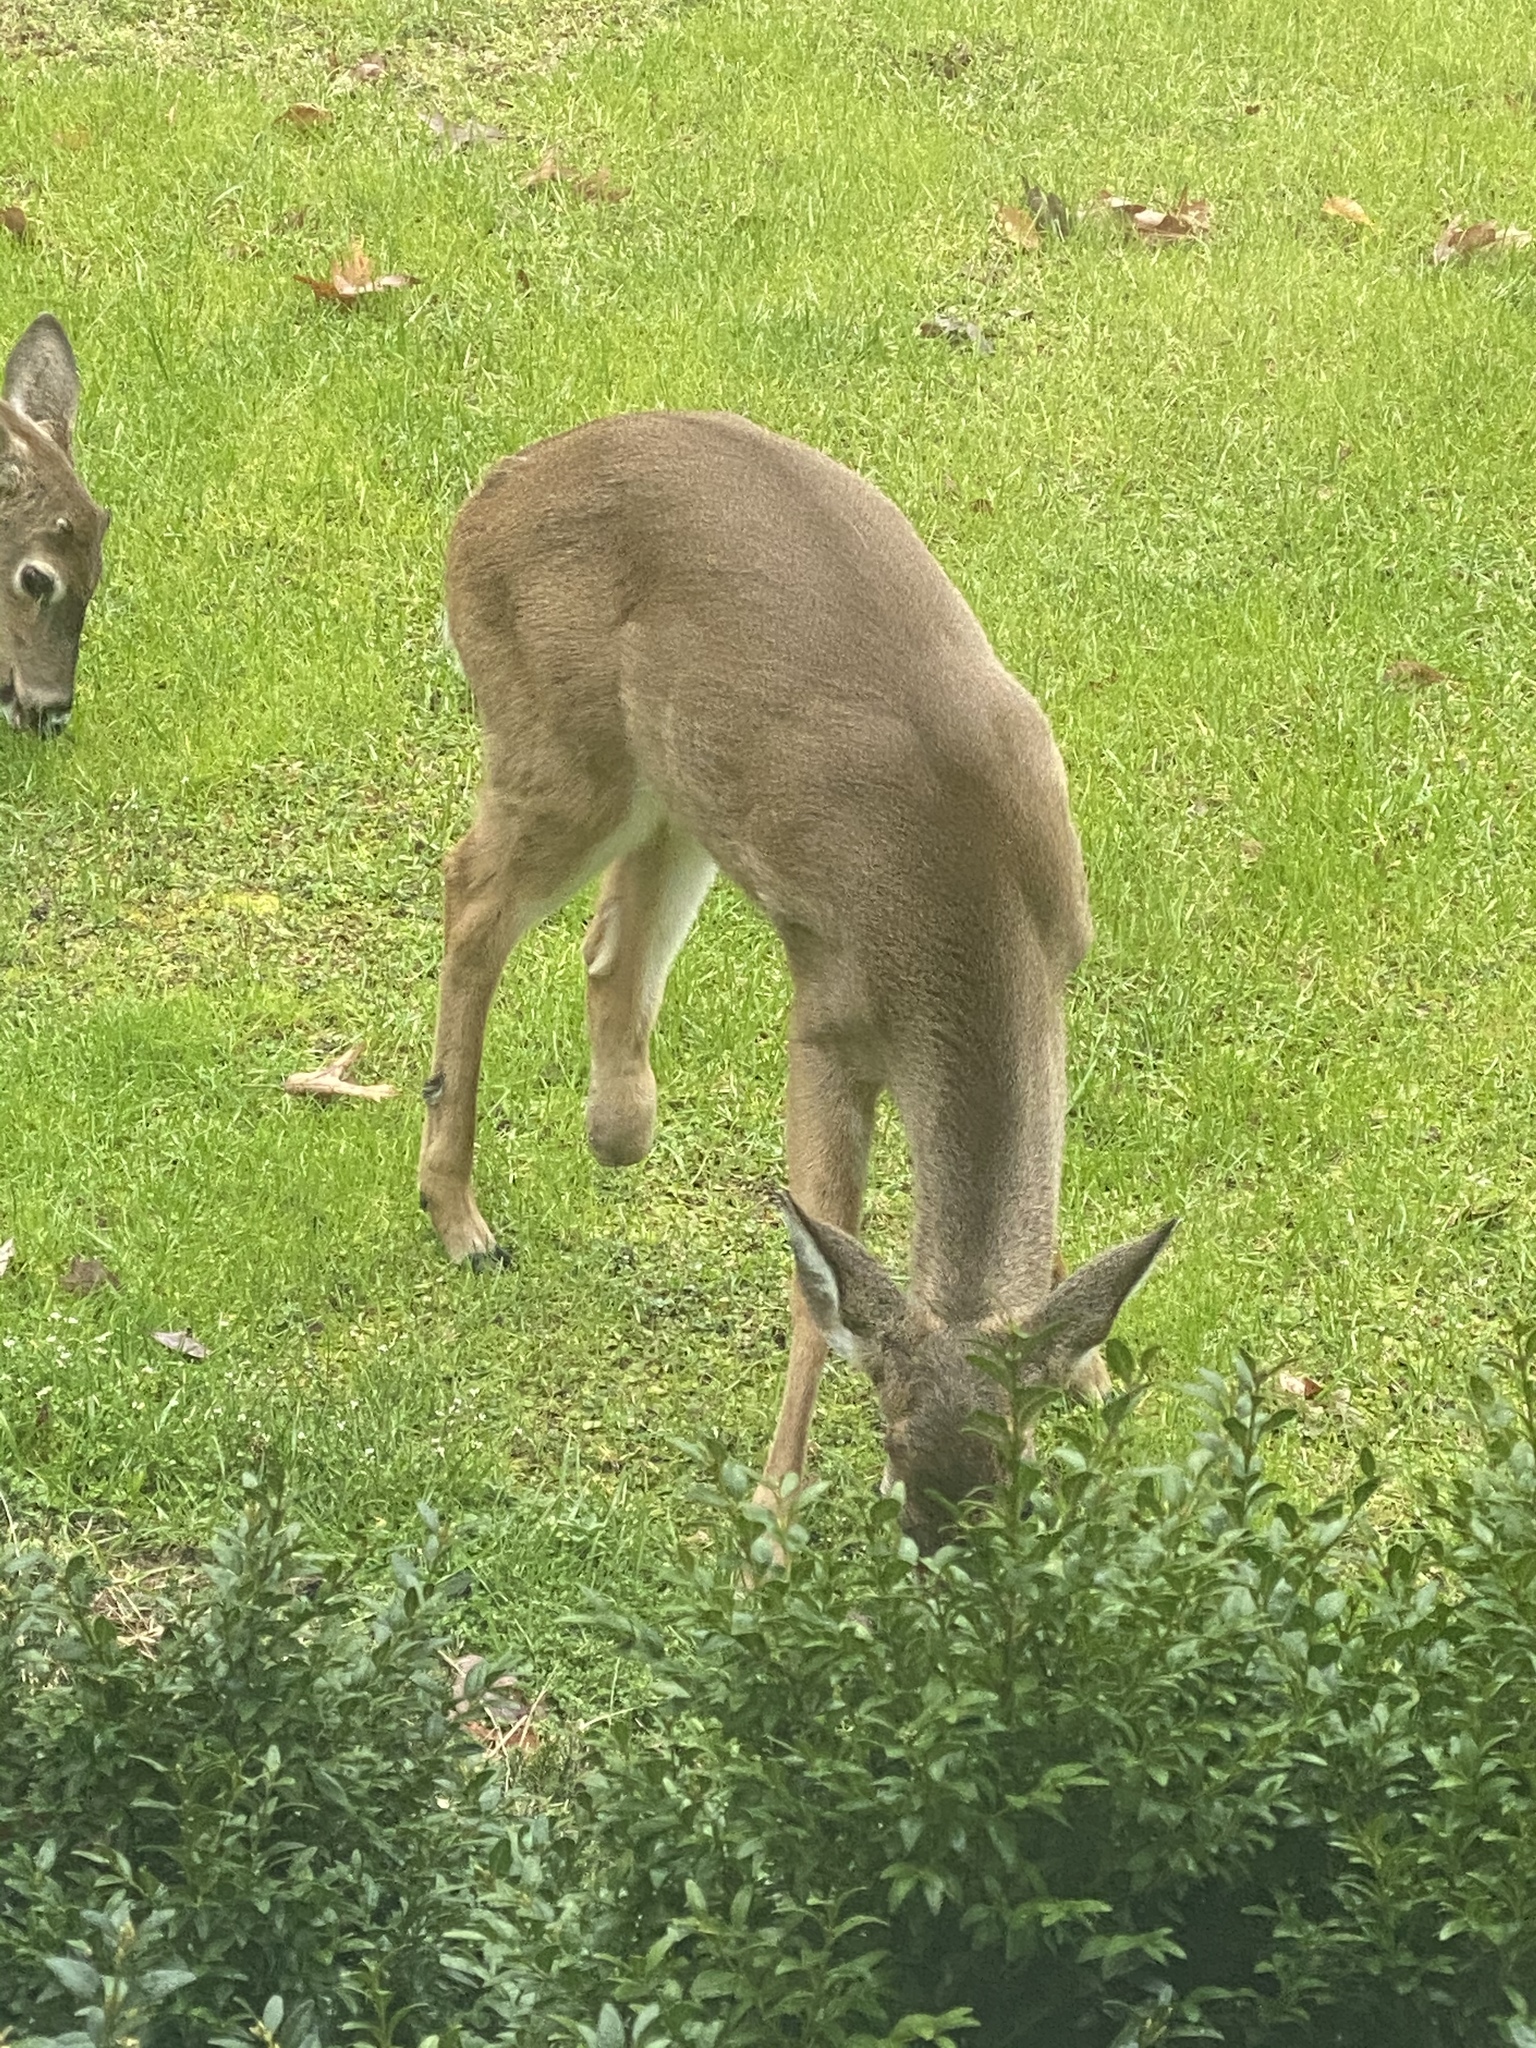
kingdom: Animalia
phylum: Chordata
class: Mammalia
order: Artiodactyla
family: Cervidae
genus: Odocoileus
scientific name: Odocoileus virginianus
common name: White-tailed deer
